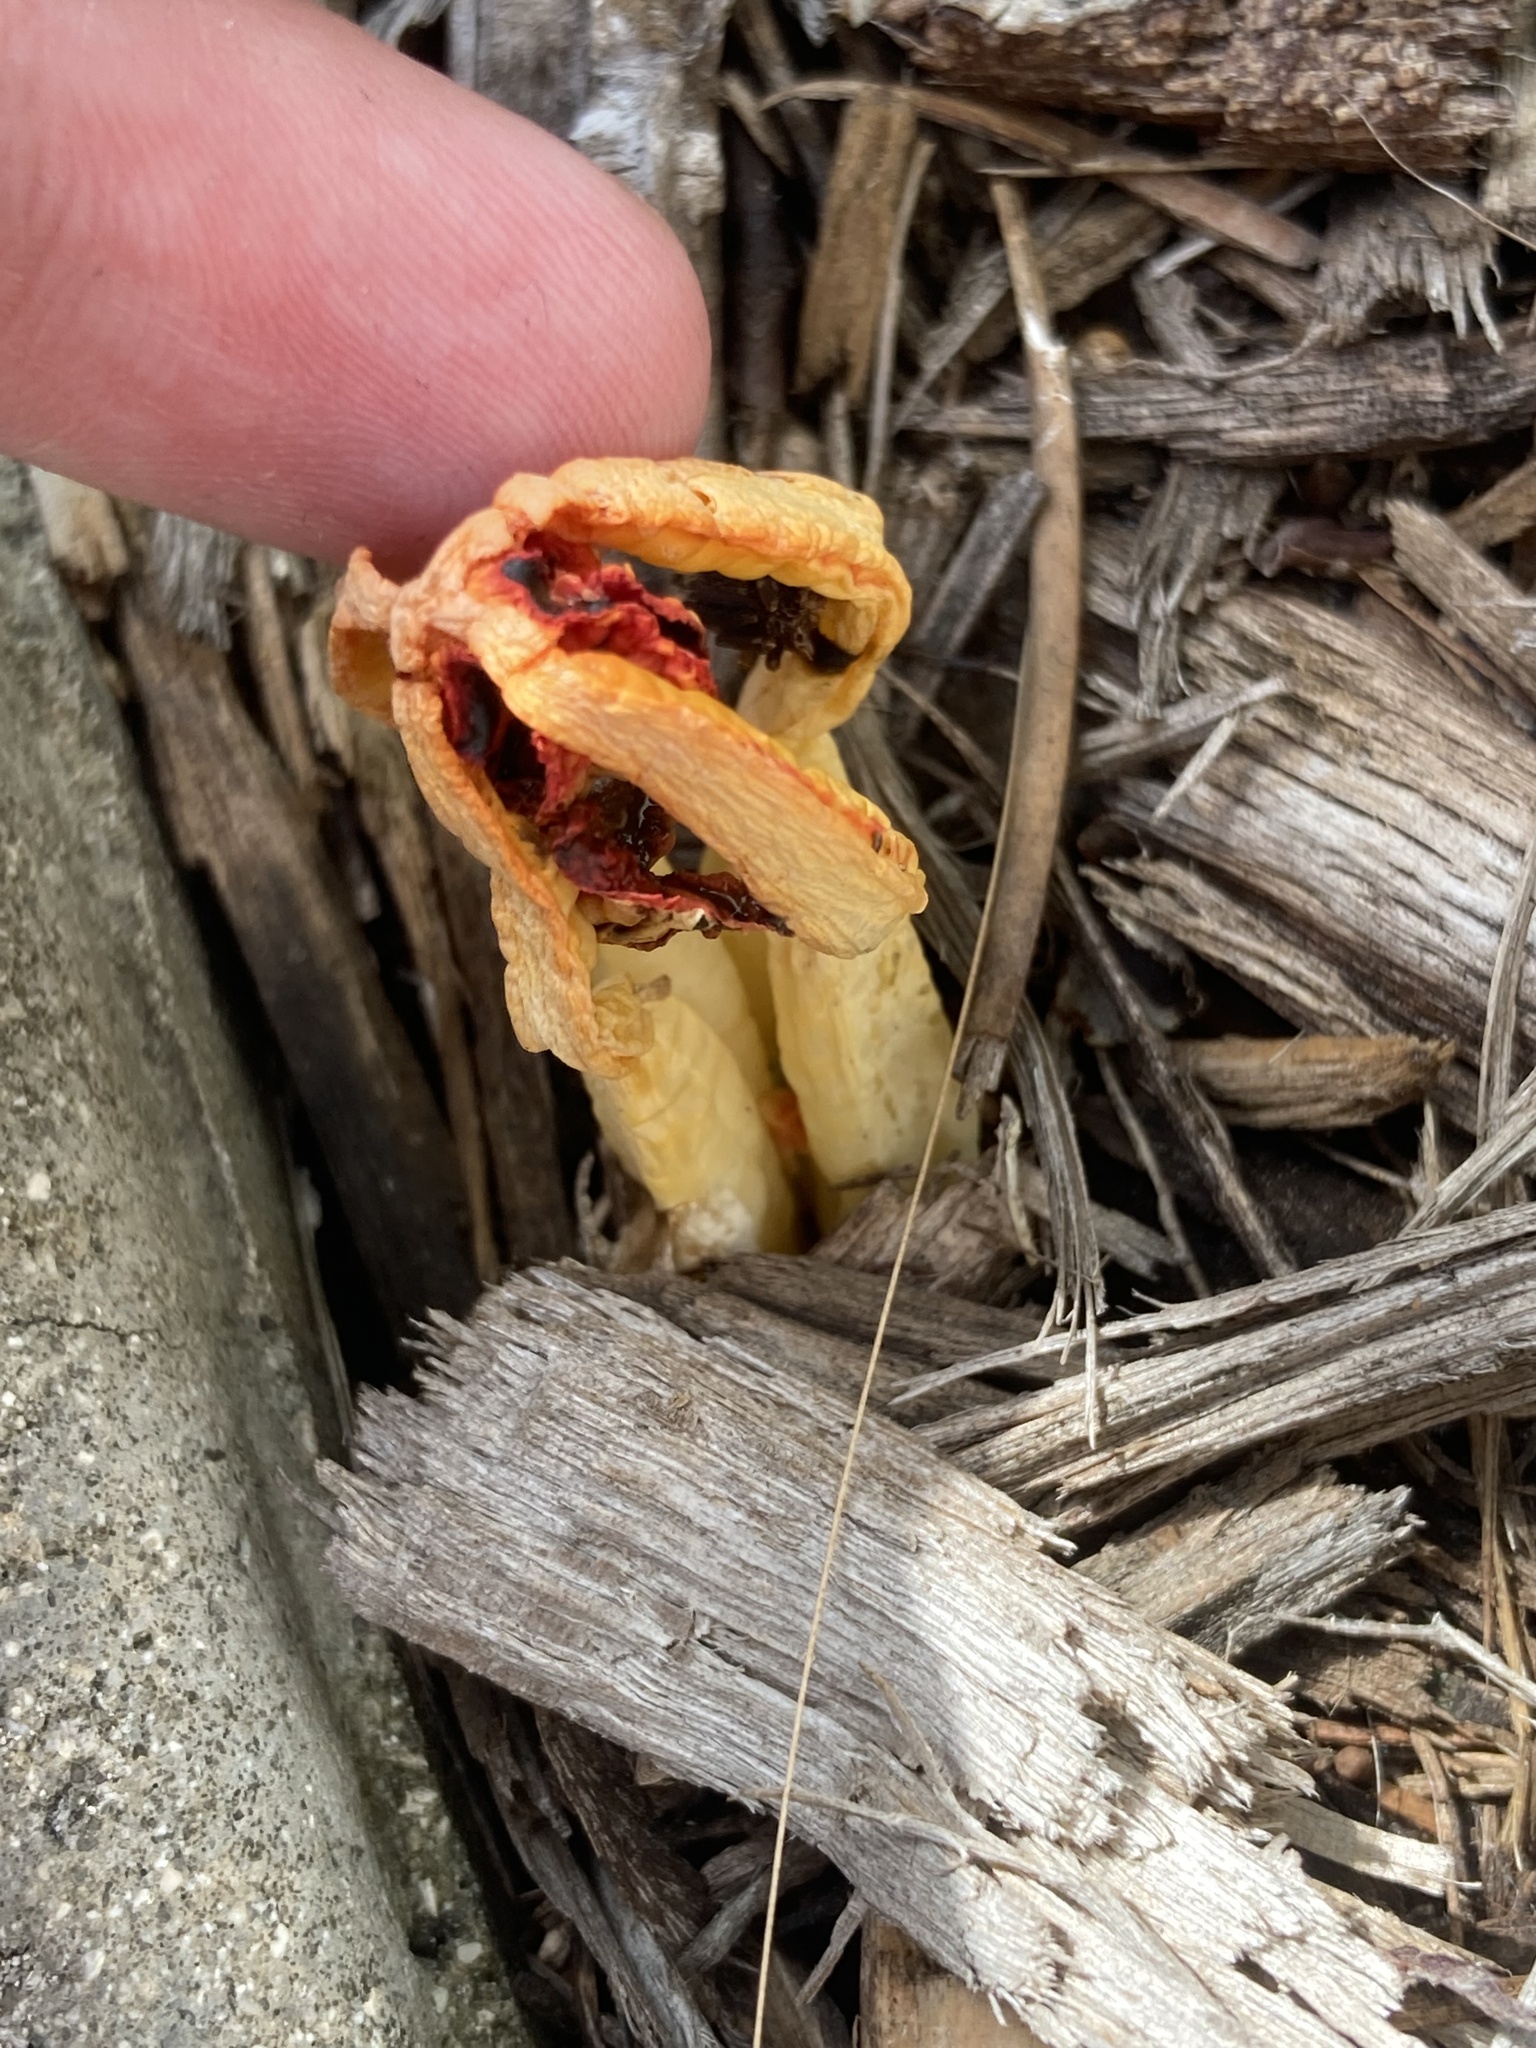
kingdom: Fungi
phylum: Basidiomycota
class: Agaricomycetes
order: Phallales
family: Phallaceae
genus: Laternea
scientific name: Laternea dringii
